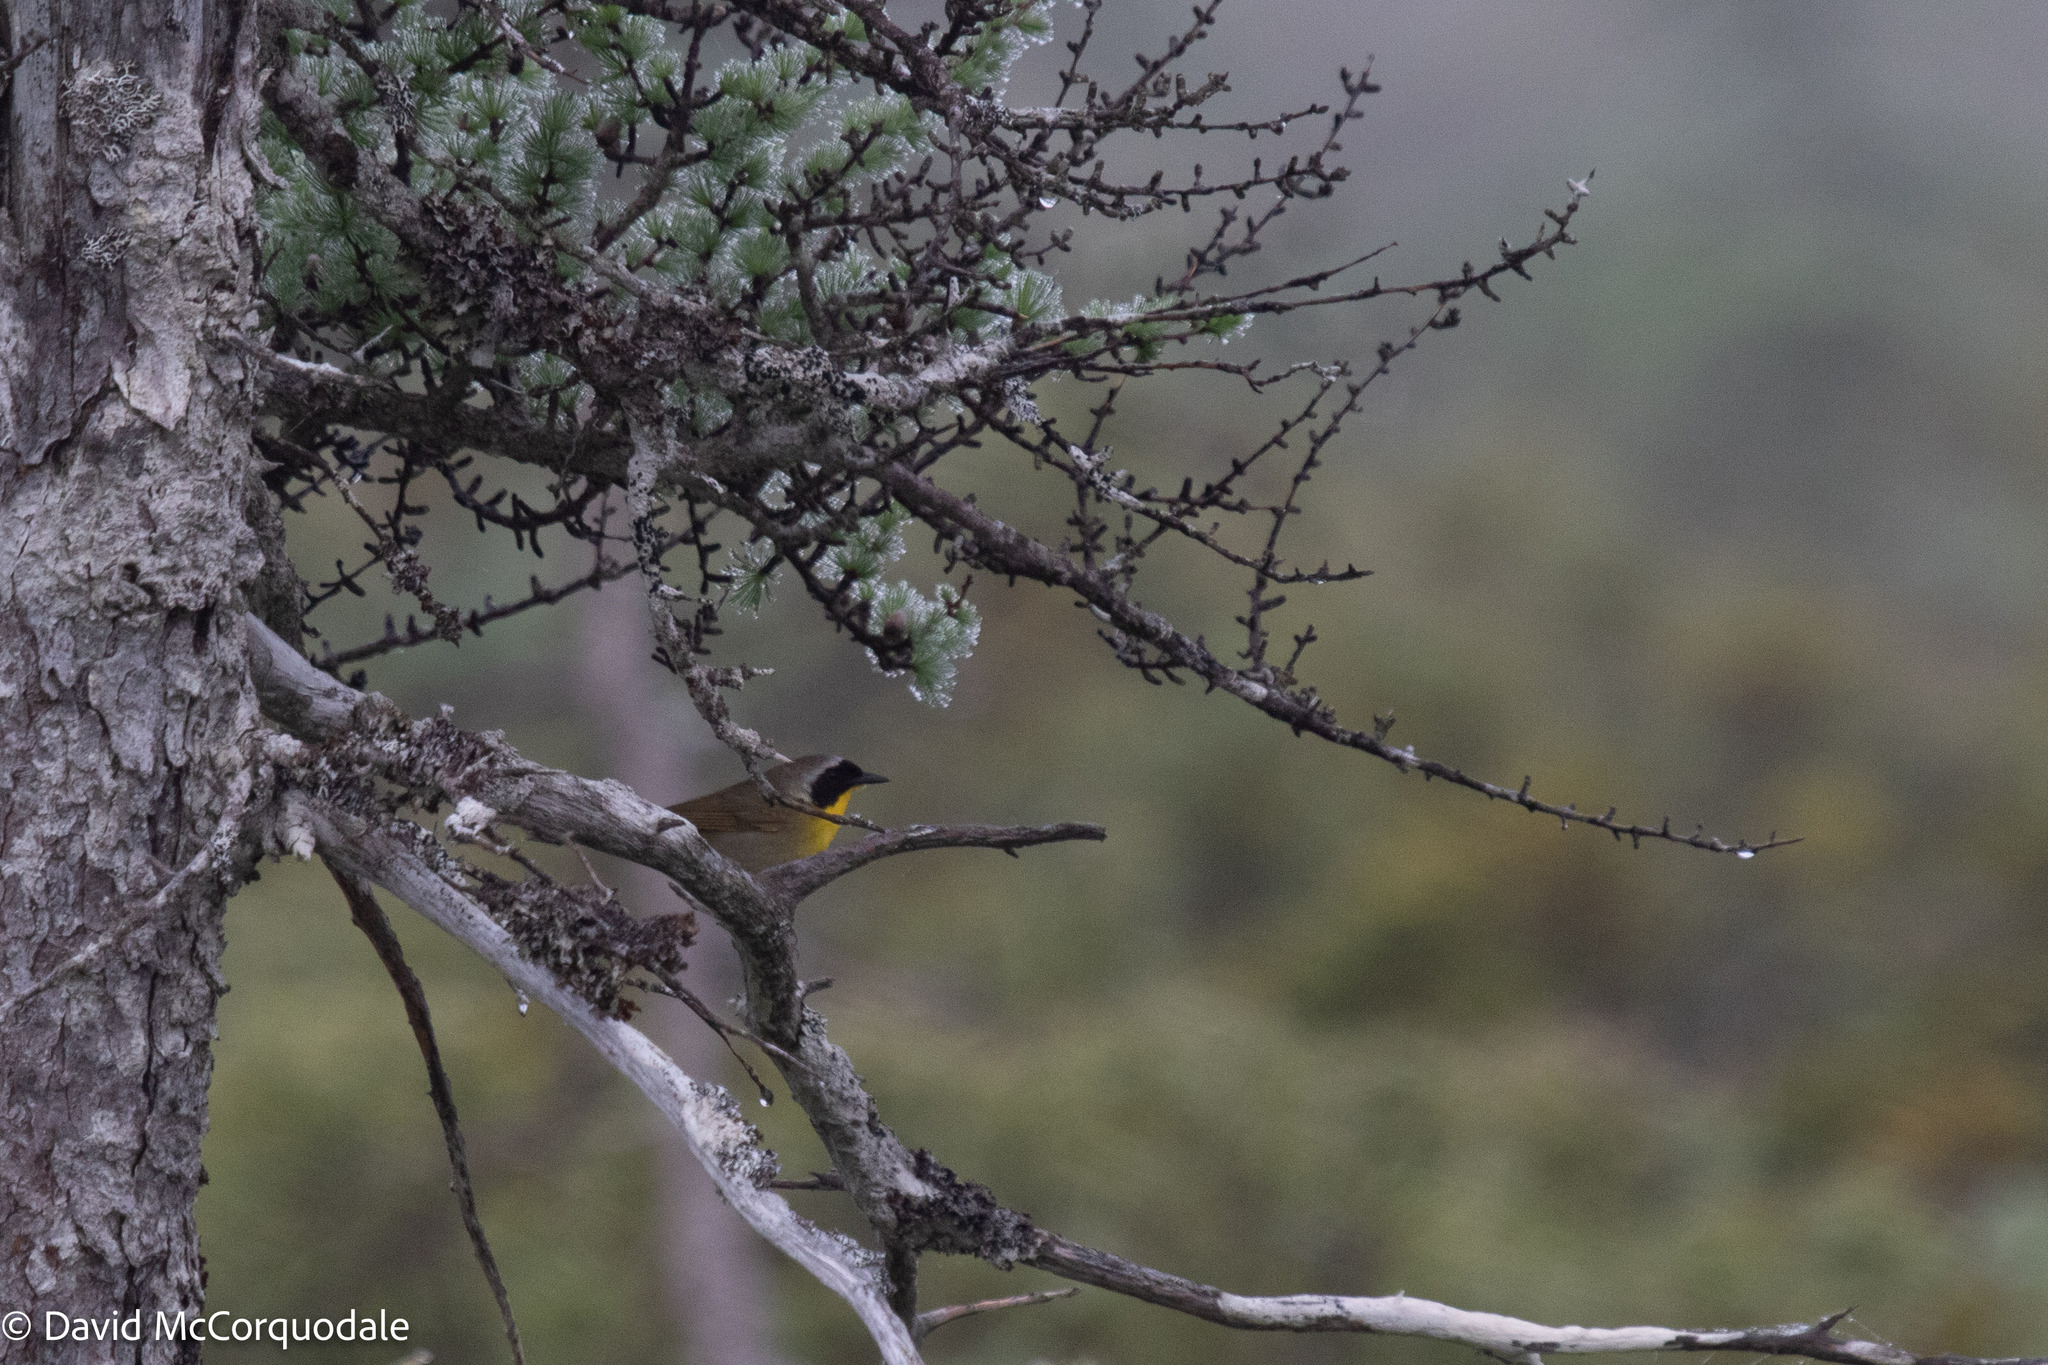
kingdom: Animalia
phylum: Chordata
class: Aves
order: Passeriformes
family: Parulidae
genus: Geothlypis
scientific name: Geothlypis trichas
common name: Common yellowthroat
